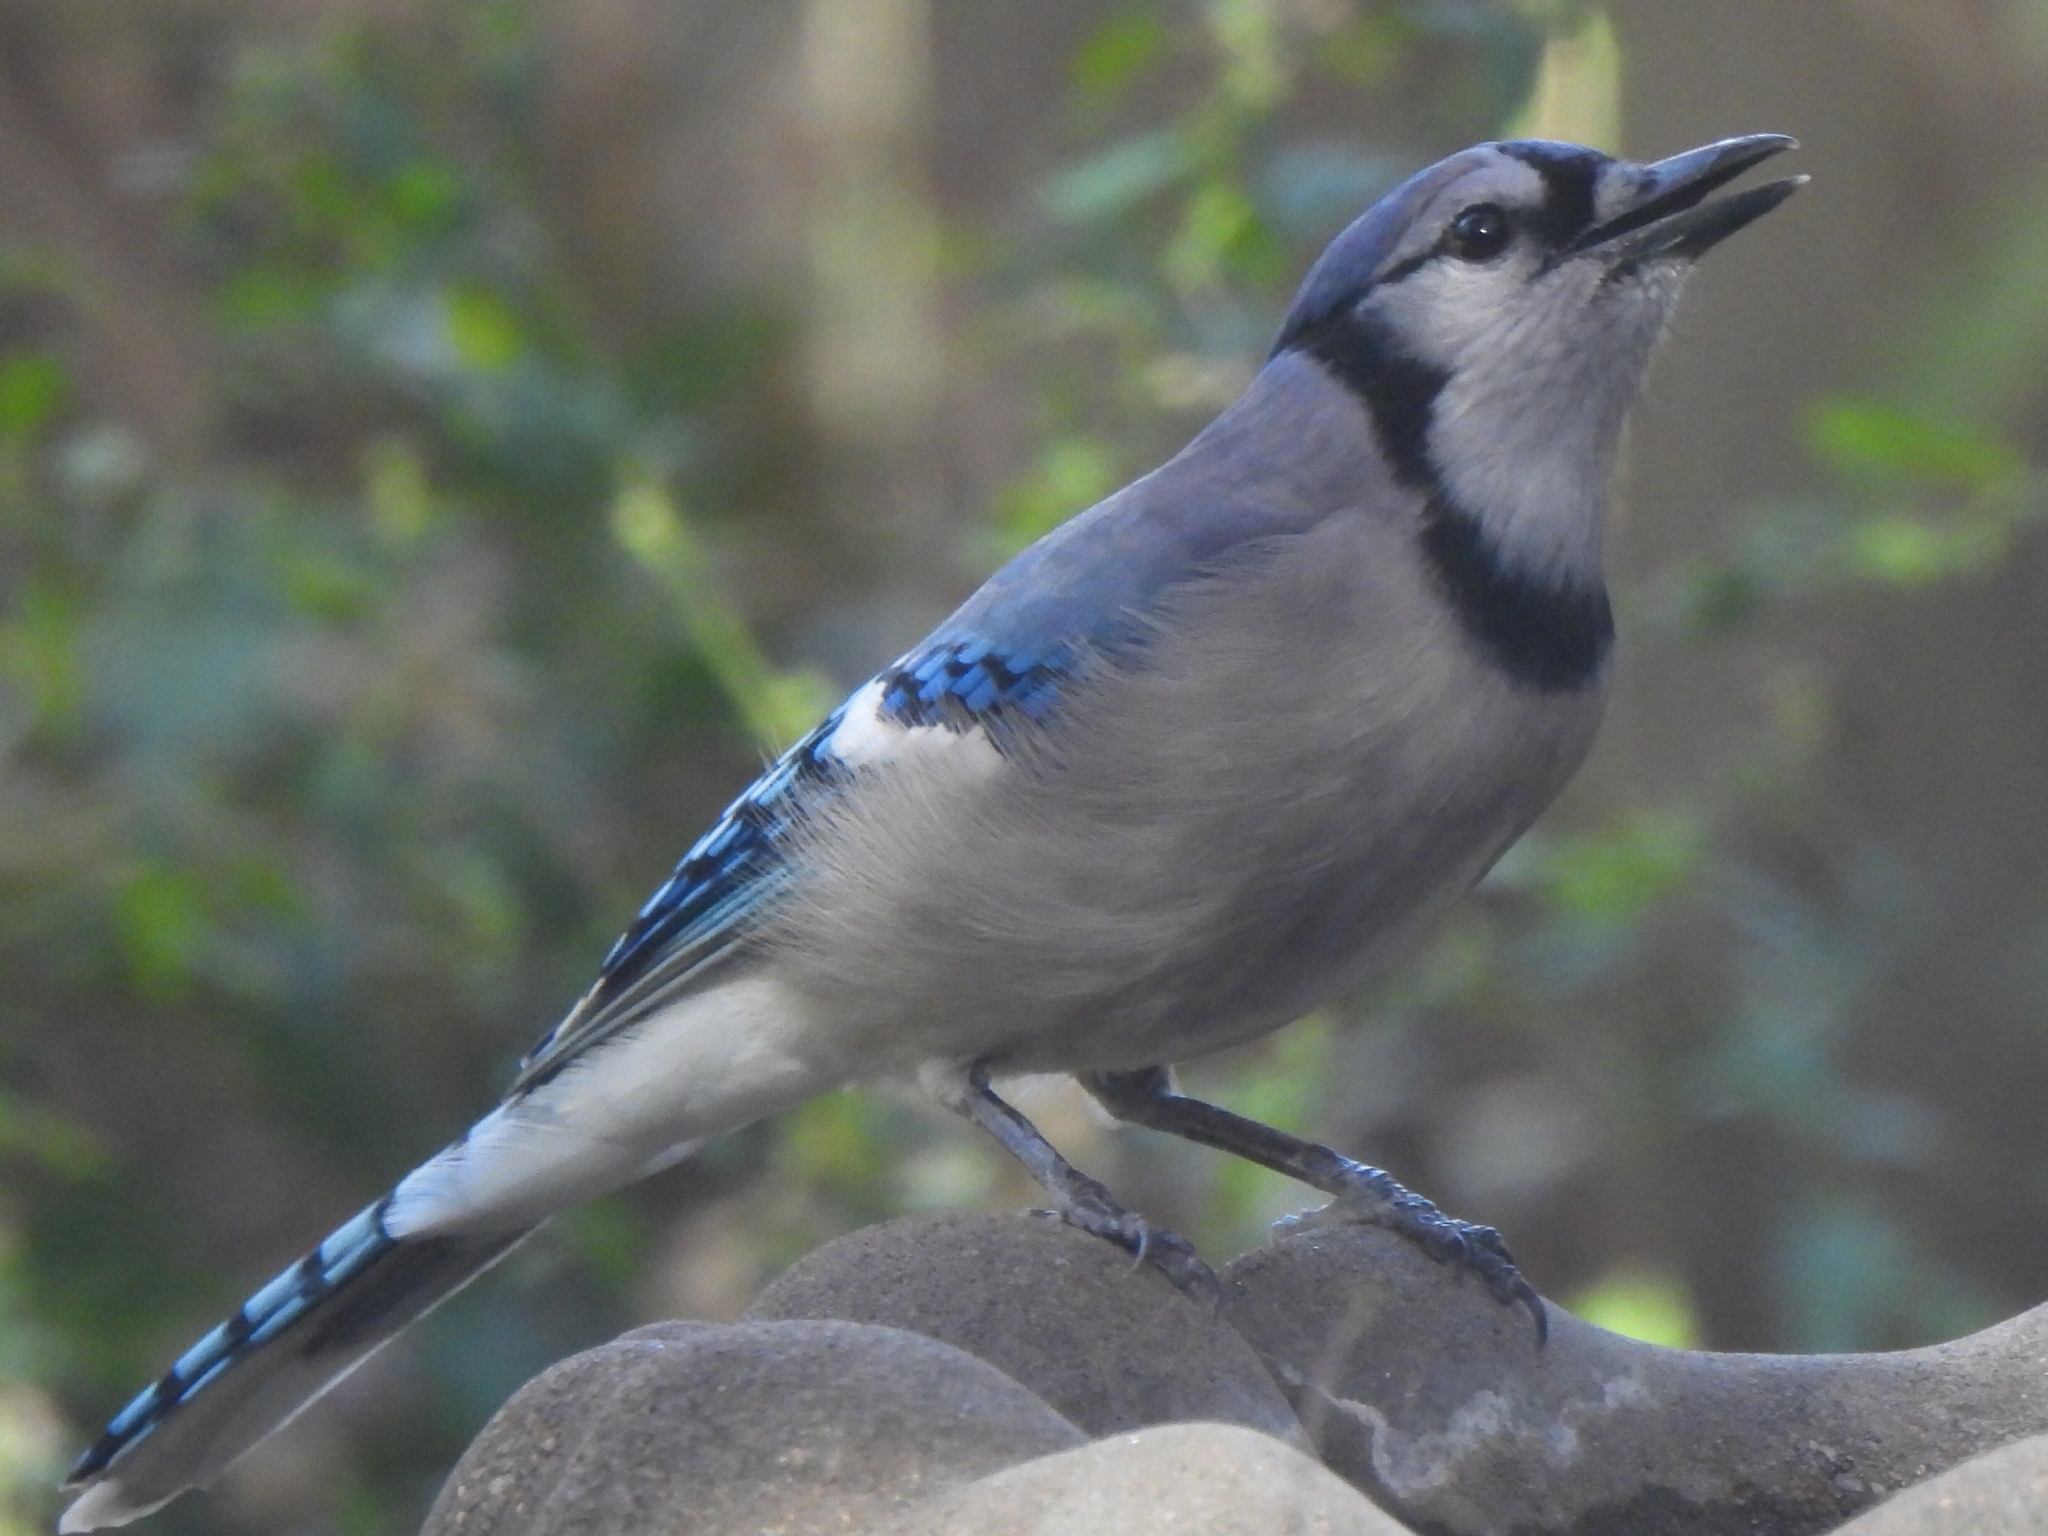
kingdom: Animalia
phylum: Chordata
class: Aves
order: Passeriformes
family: Corvidae
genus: Cyanocitta
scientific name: Cyanocitta cristata
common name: Blue jay
